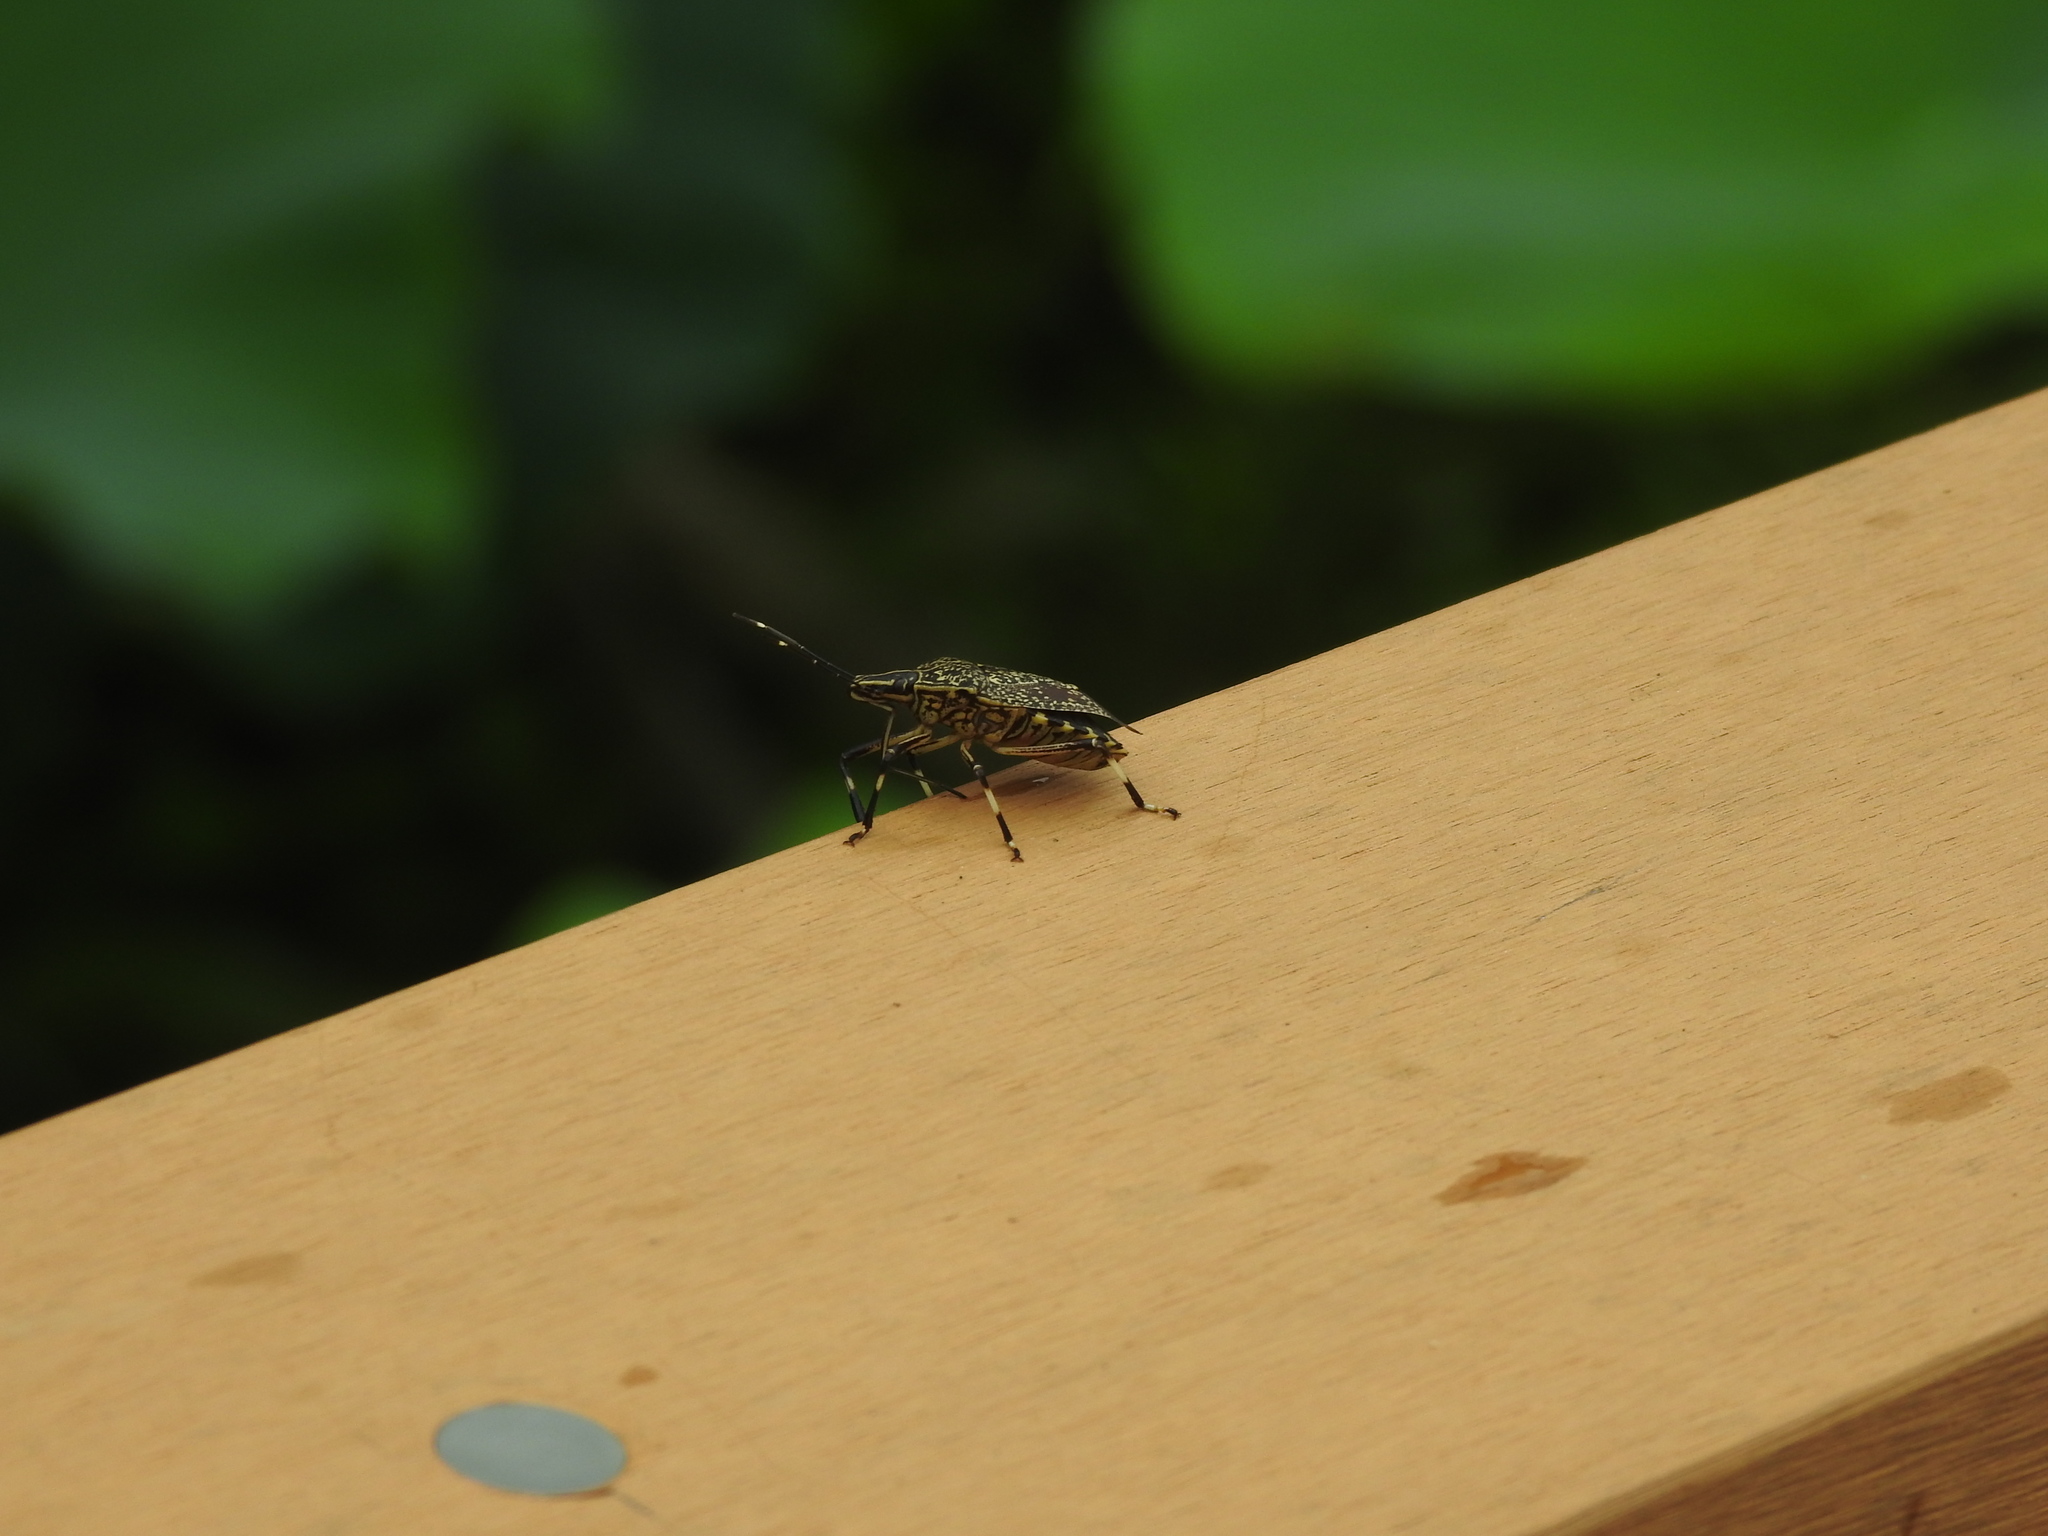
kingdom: Animalia
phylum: Arthropoda
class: Insecta
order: Hemiptera
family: Pentatomidae
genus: Erthesina
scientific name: Erthesina fullo
